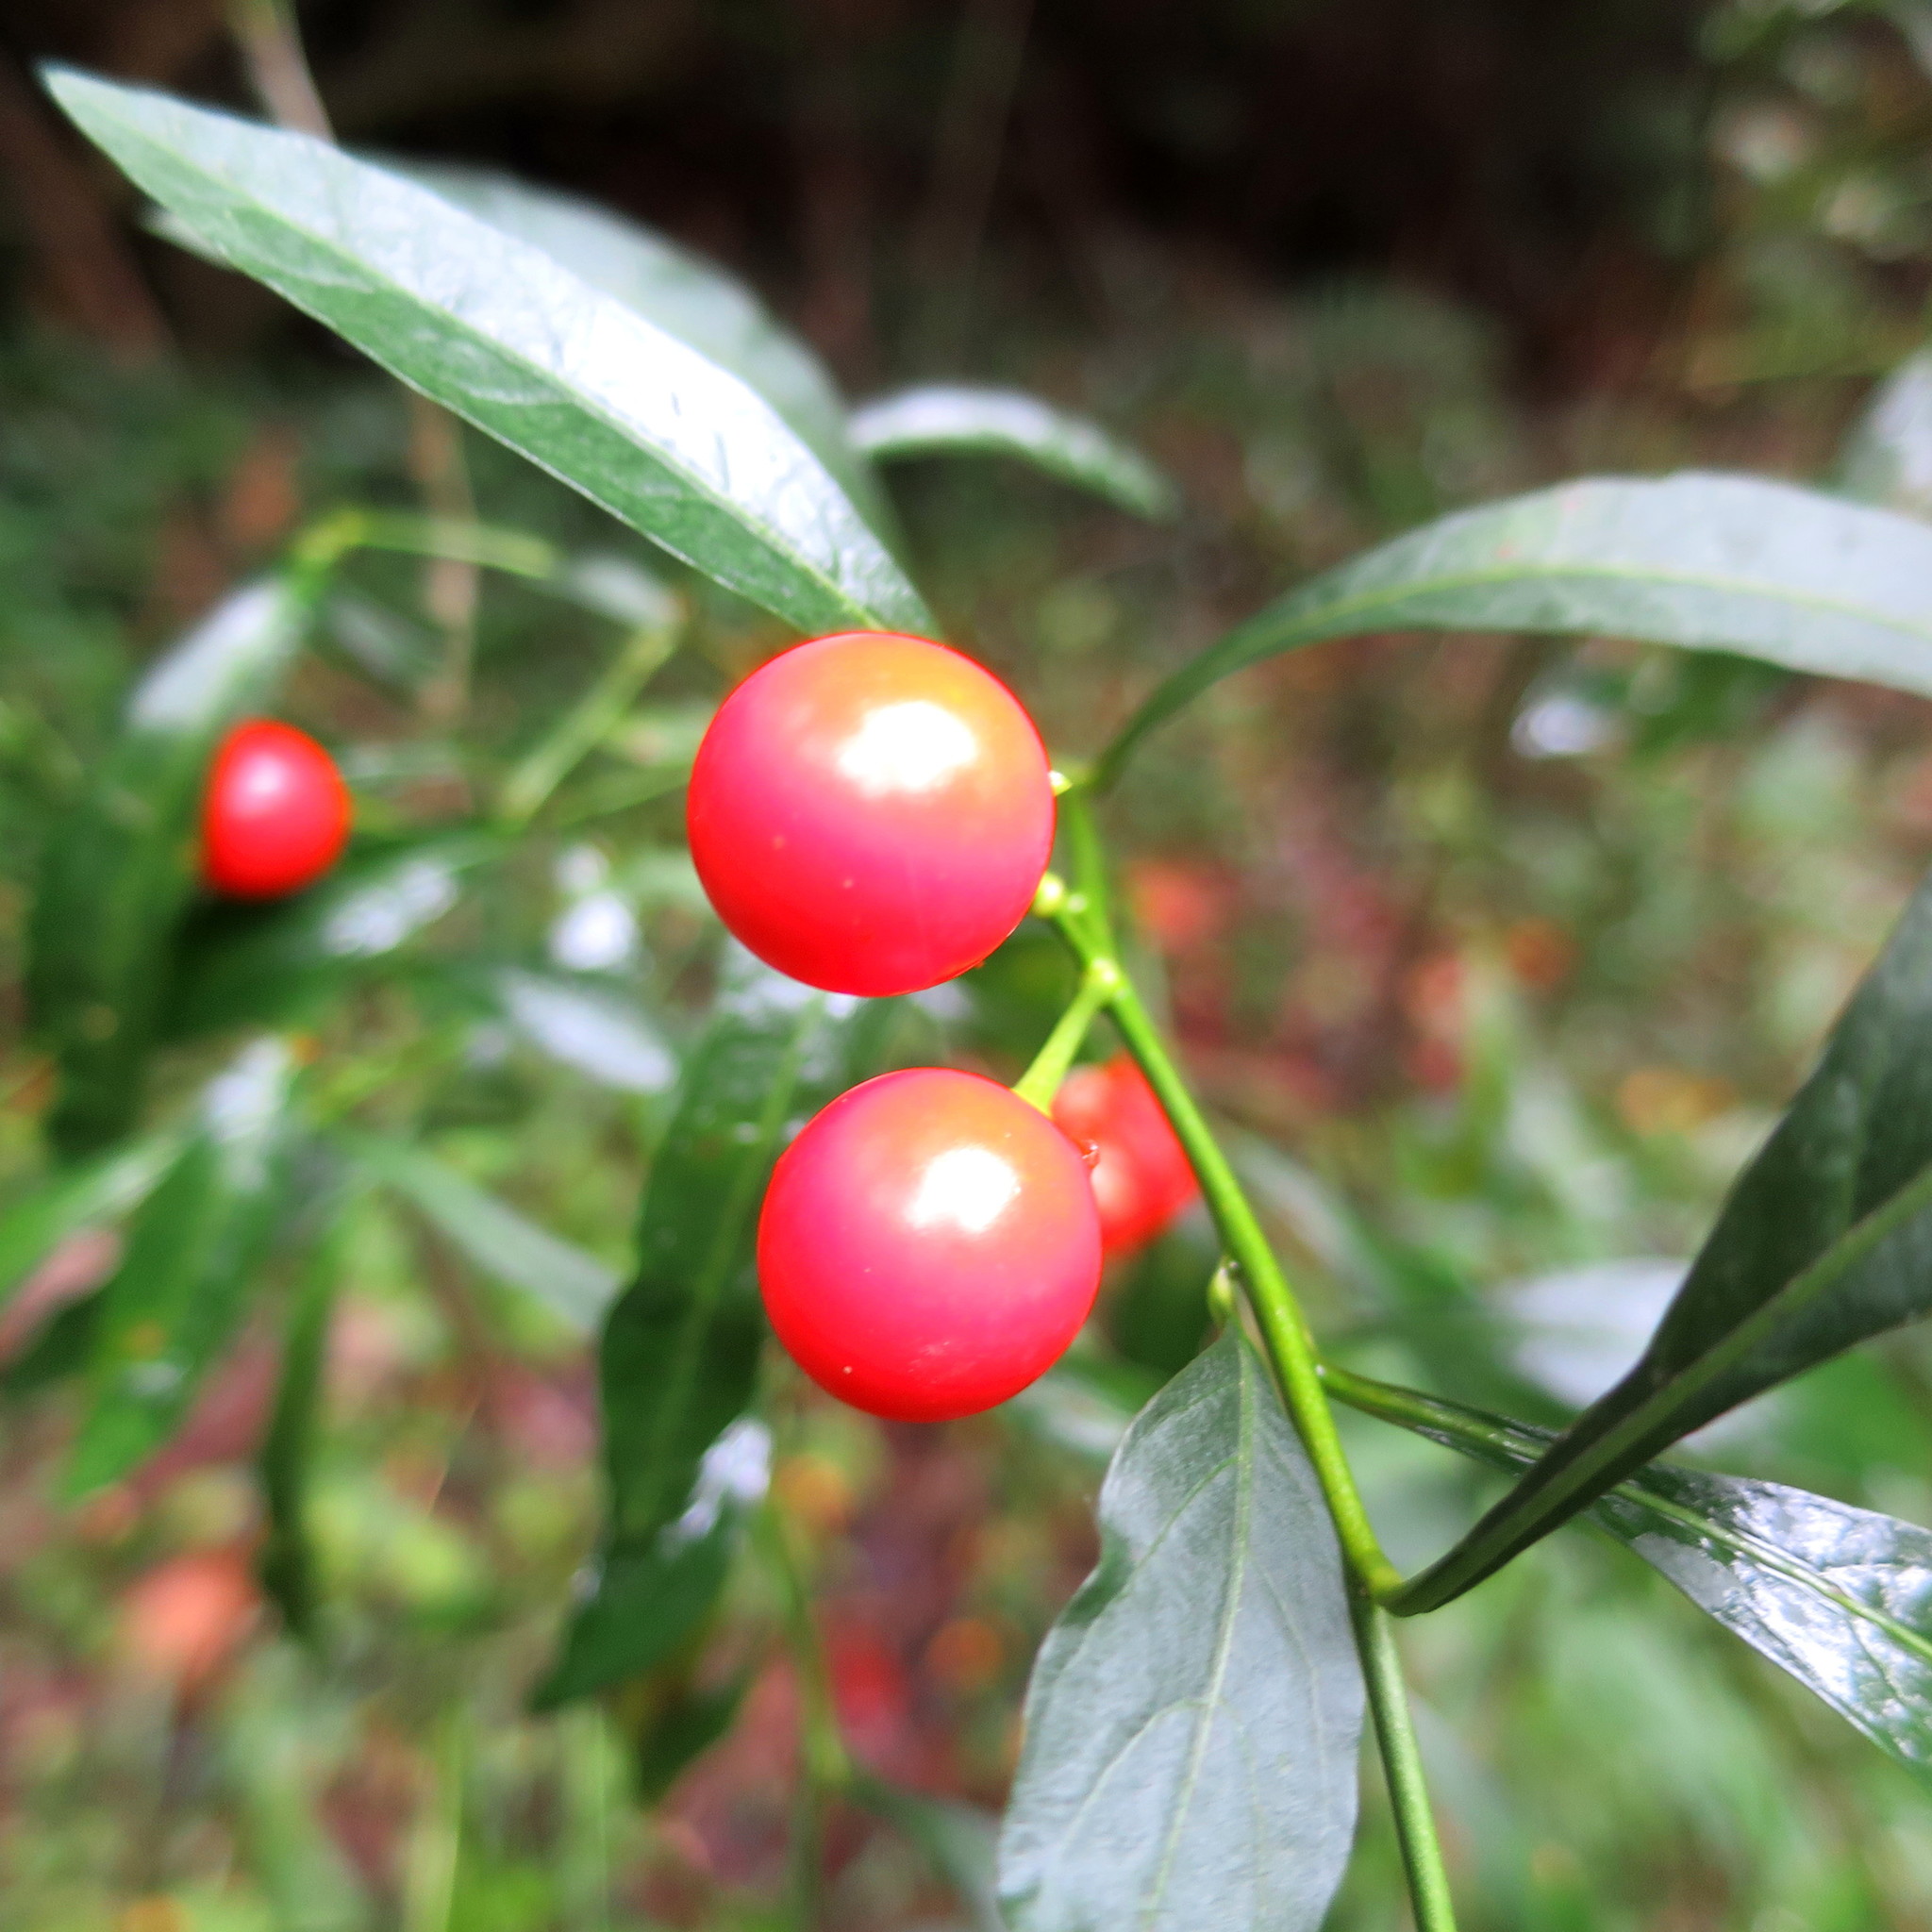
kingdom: Plantae
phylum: Tracheophyta
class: Magnoliopsida
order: Solanales
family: Solanaceae
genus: Solanum
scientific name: Solanum pseudocapsicum
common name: Jerusalem cherry
